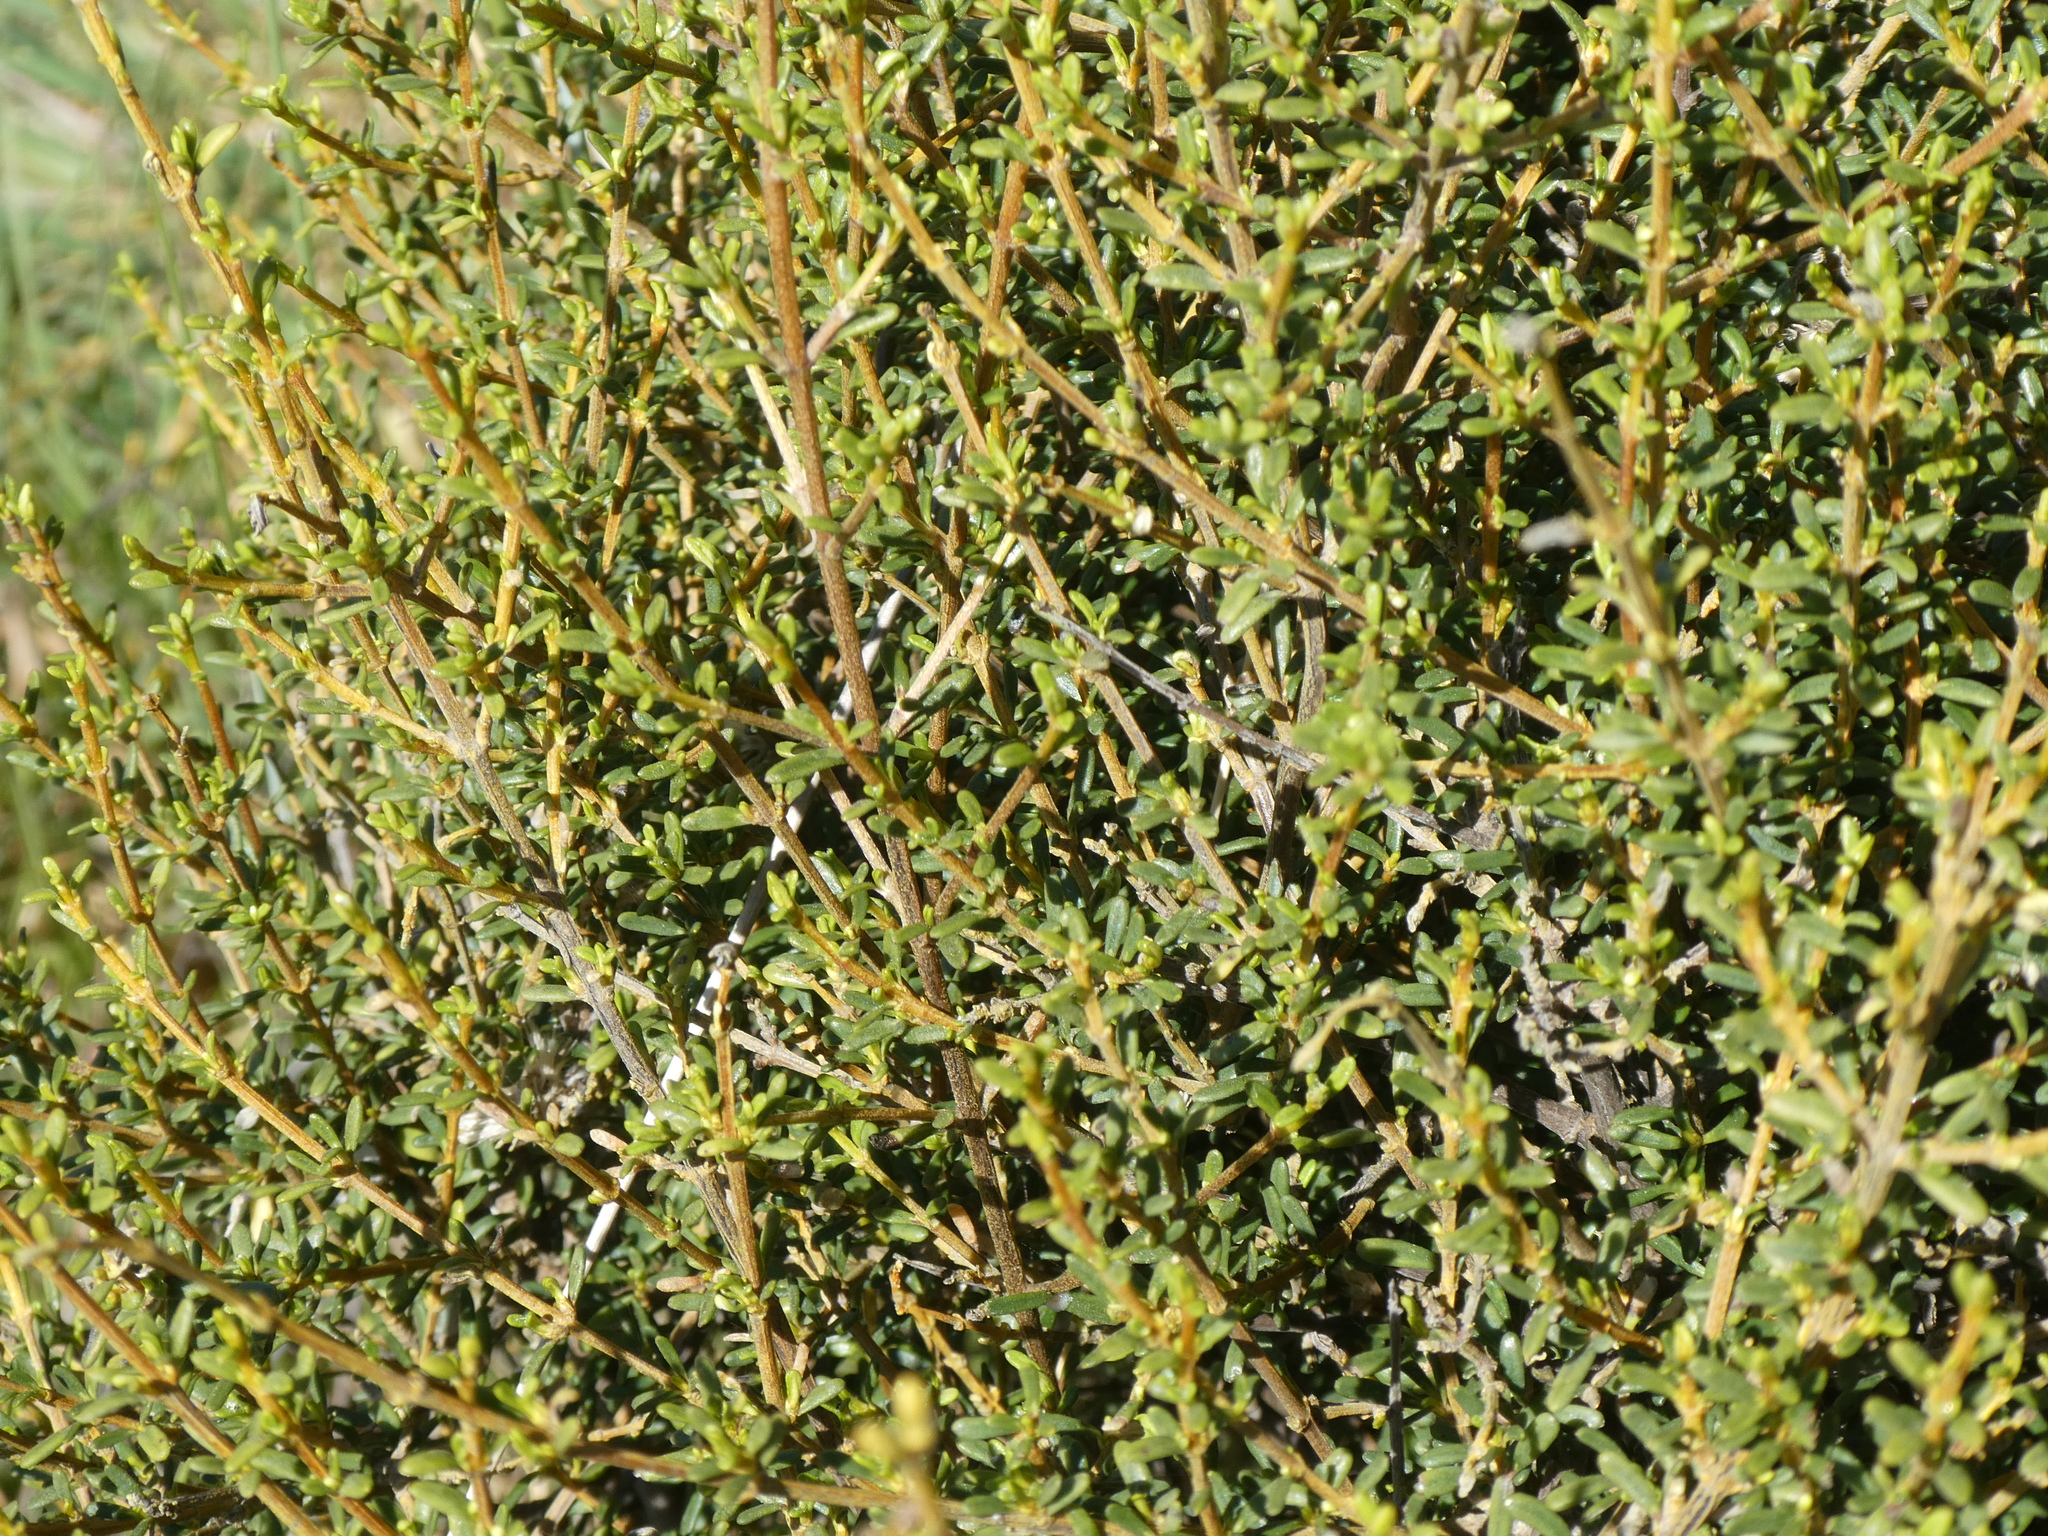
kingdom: Plantae
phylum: Tracheophyta
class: Magnoliopsida
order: Asterales
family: Asteraceae
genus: Olearia
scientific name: Olearia solandri
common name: Coastal daisybush
